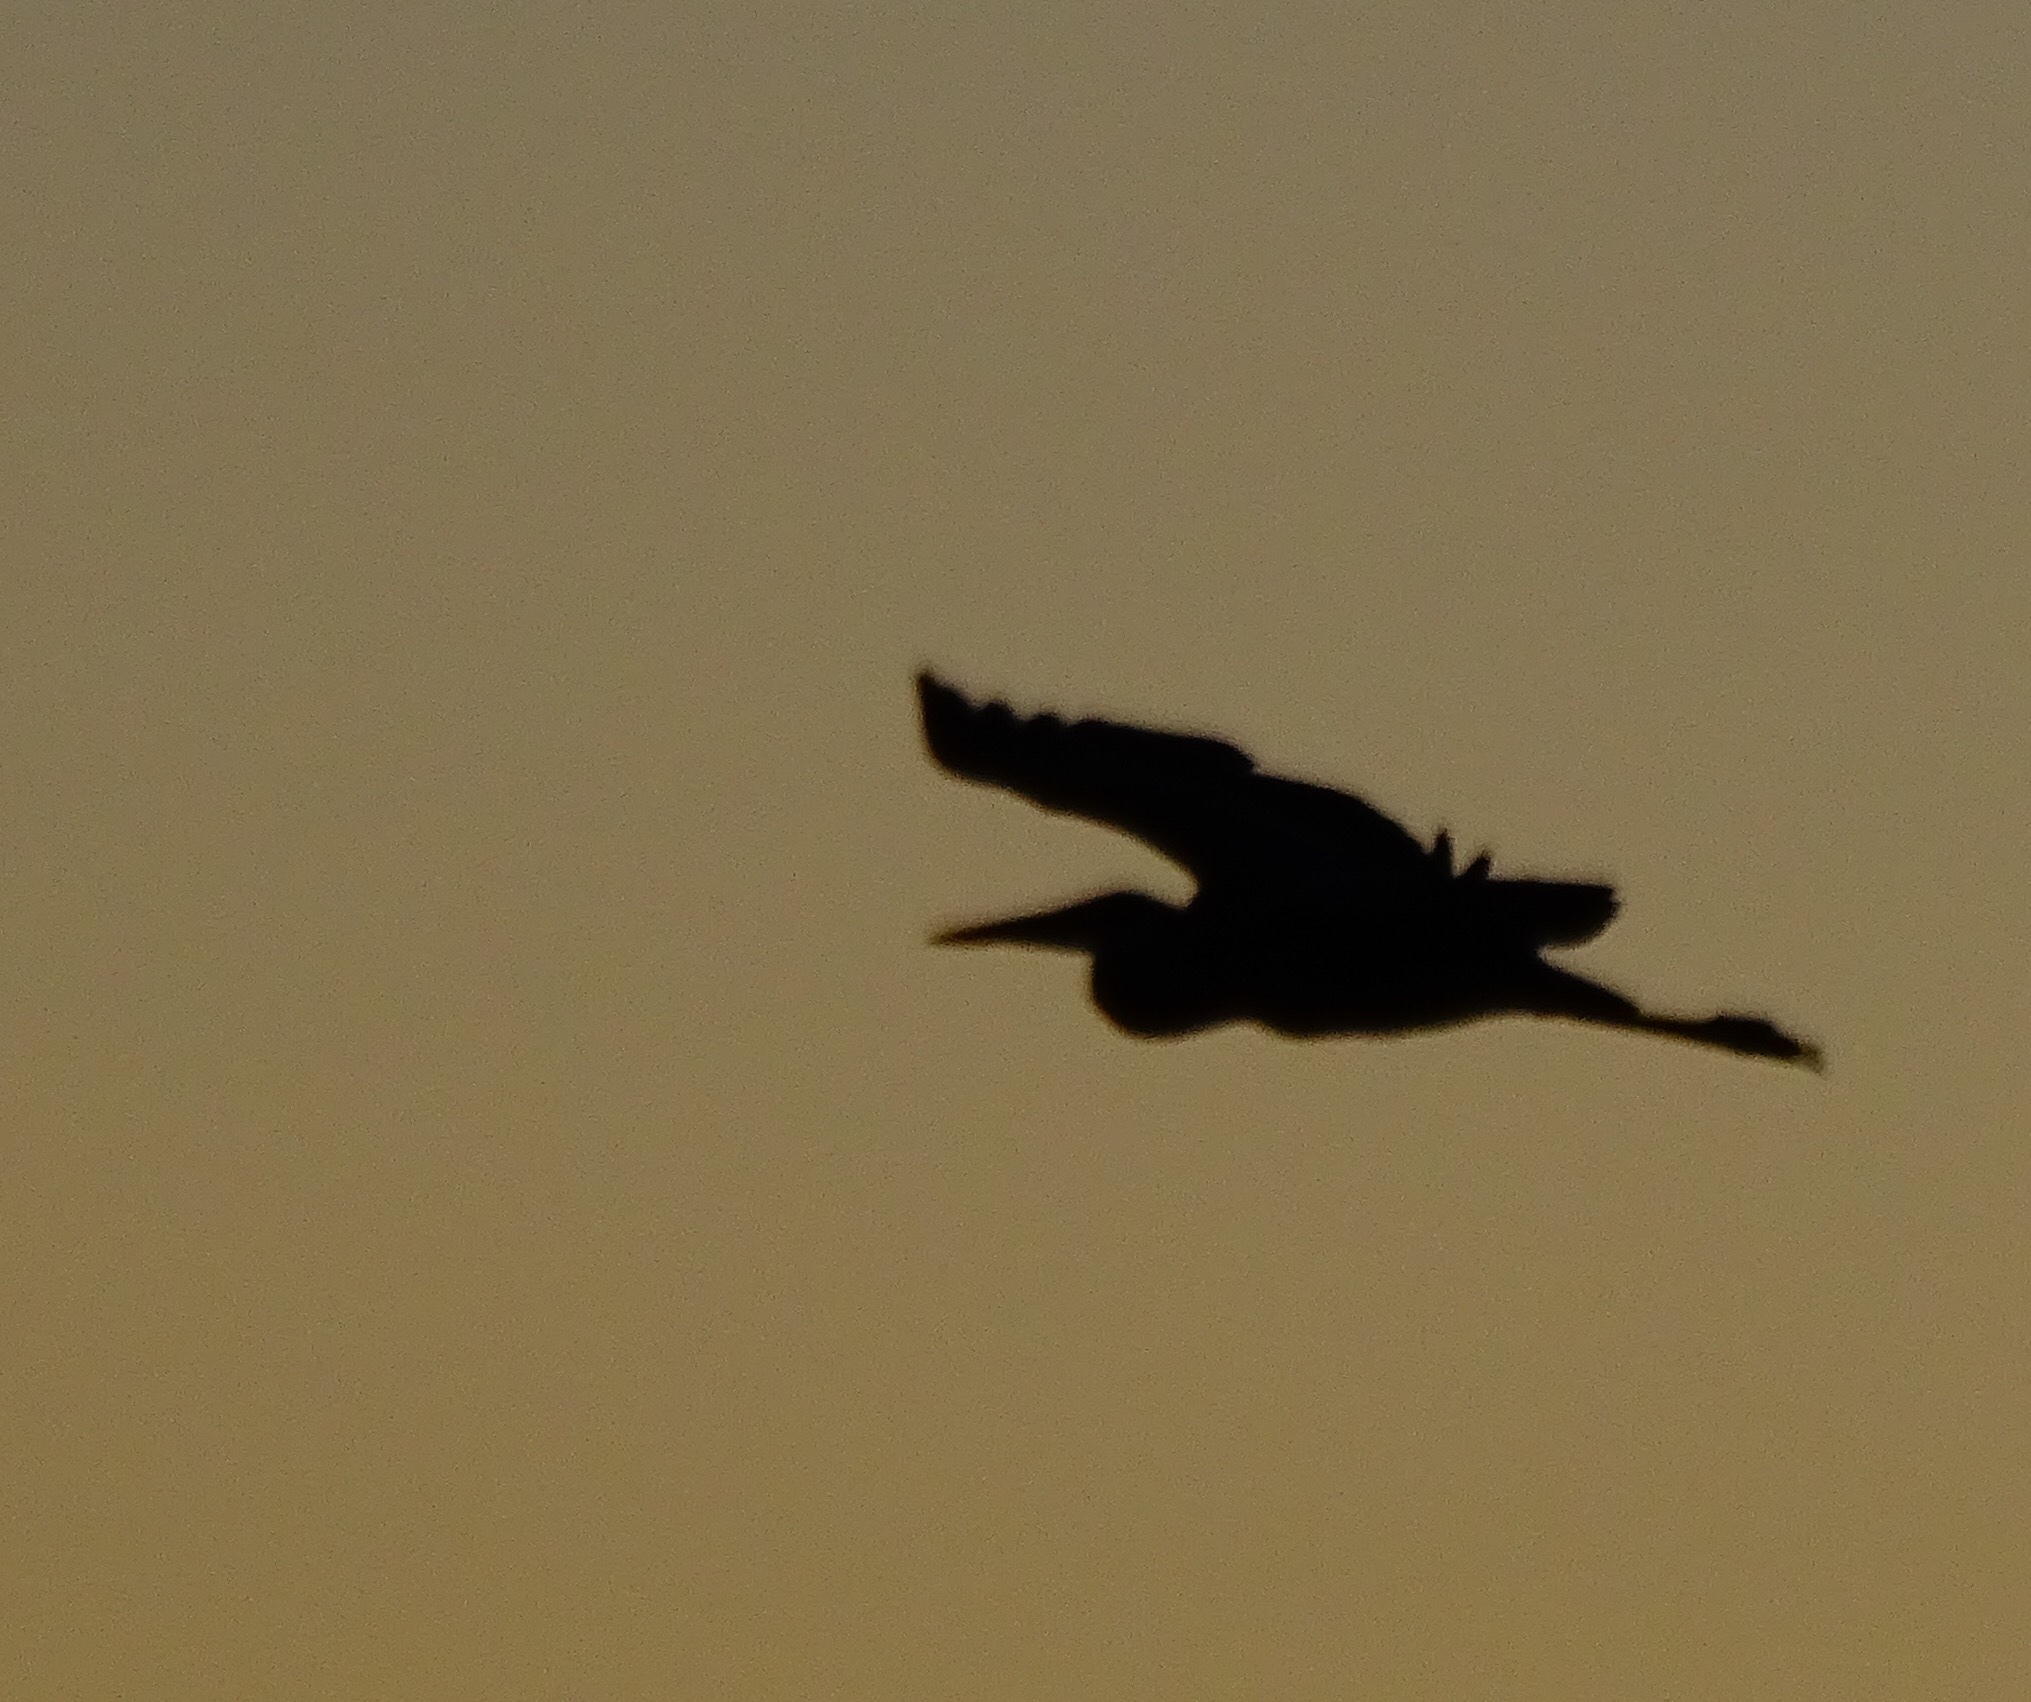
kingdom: Animalia
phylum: Chordata
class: Aves
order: Pelecaniformes
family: Ardeidae
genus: Ardea
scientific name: Ardea herodias
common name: Great blue heron
